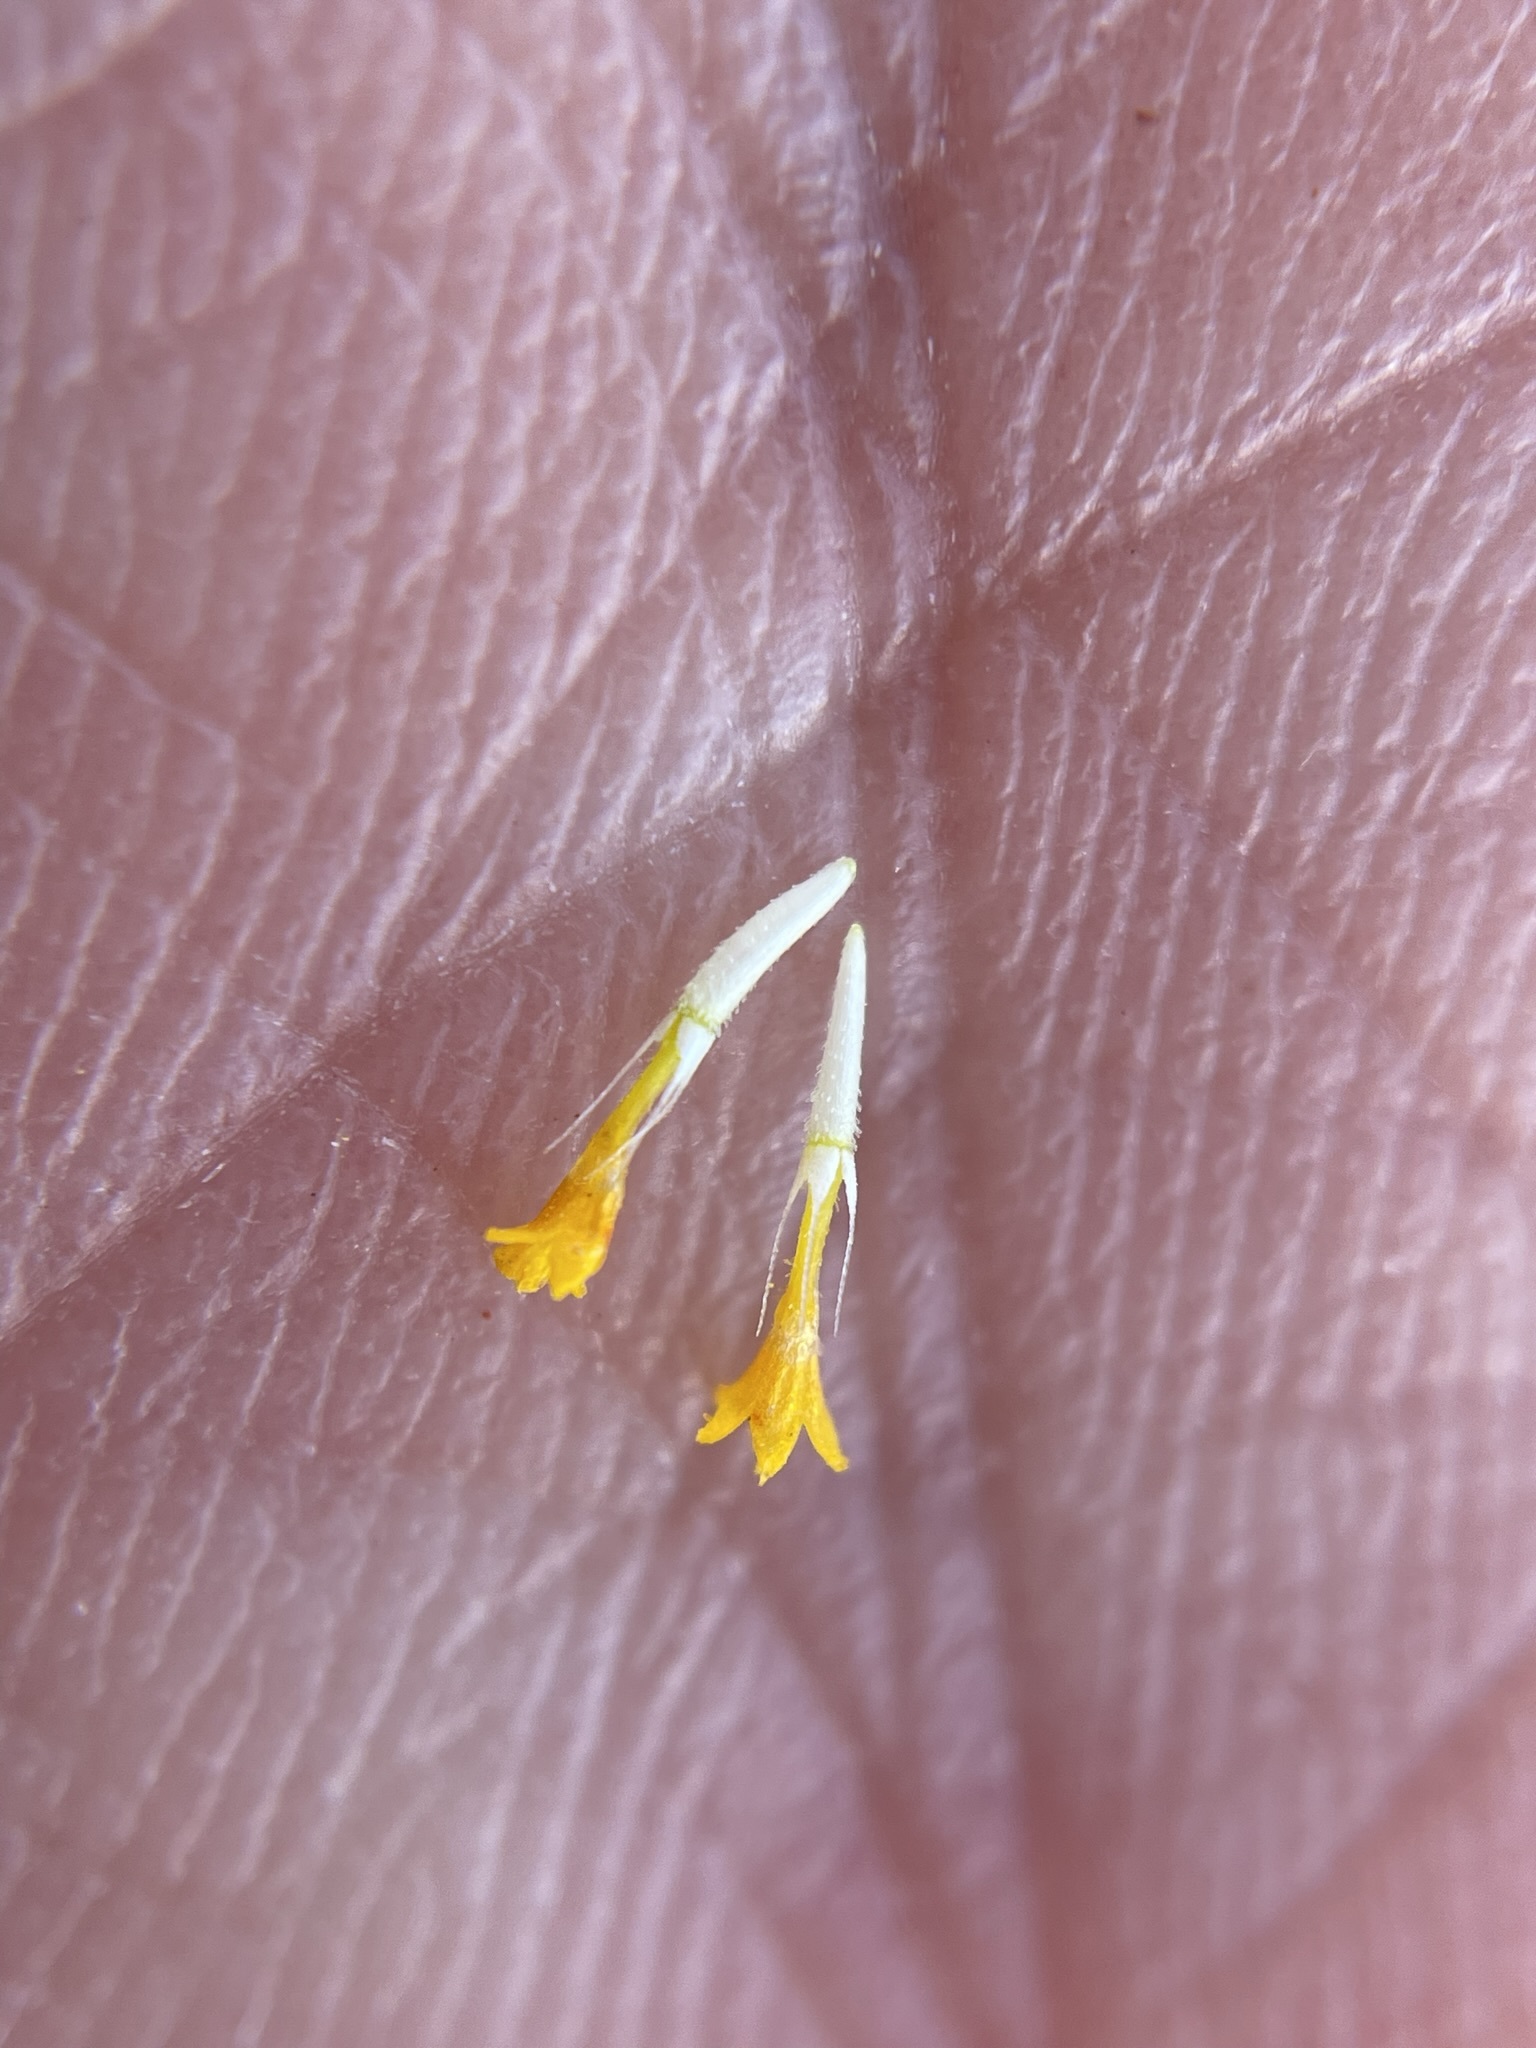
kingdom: Plantae
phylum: Tracheophyta
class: Magnoliopsida
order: Asterales
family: Asteraceae
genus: Lasthenia
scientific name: Lasthenia gracilis
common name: Common goldfields
